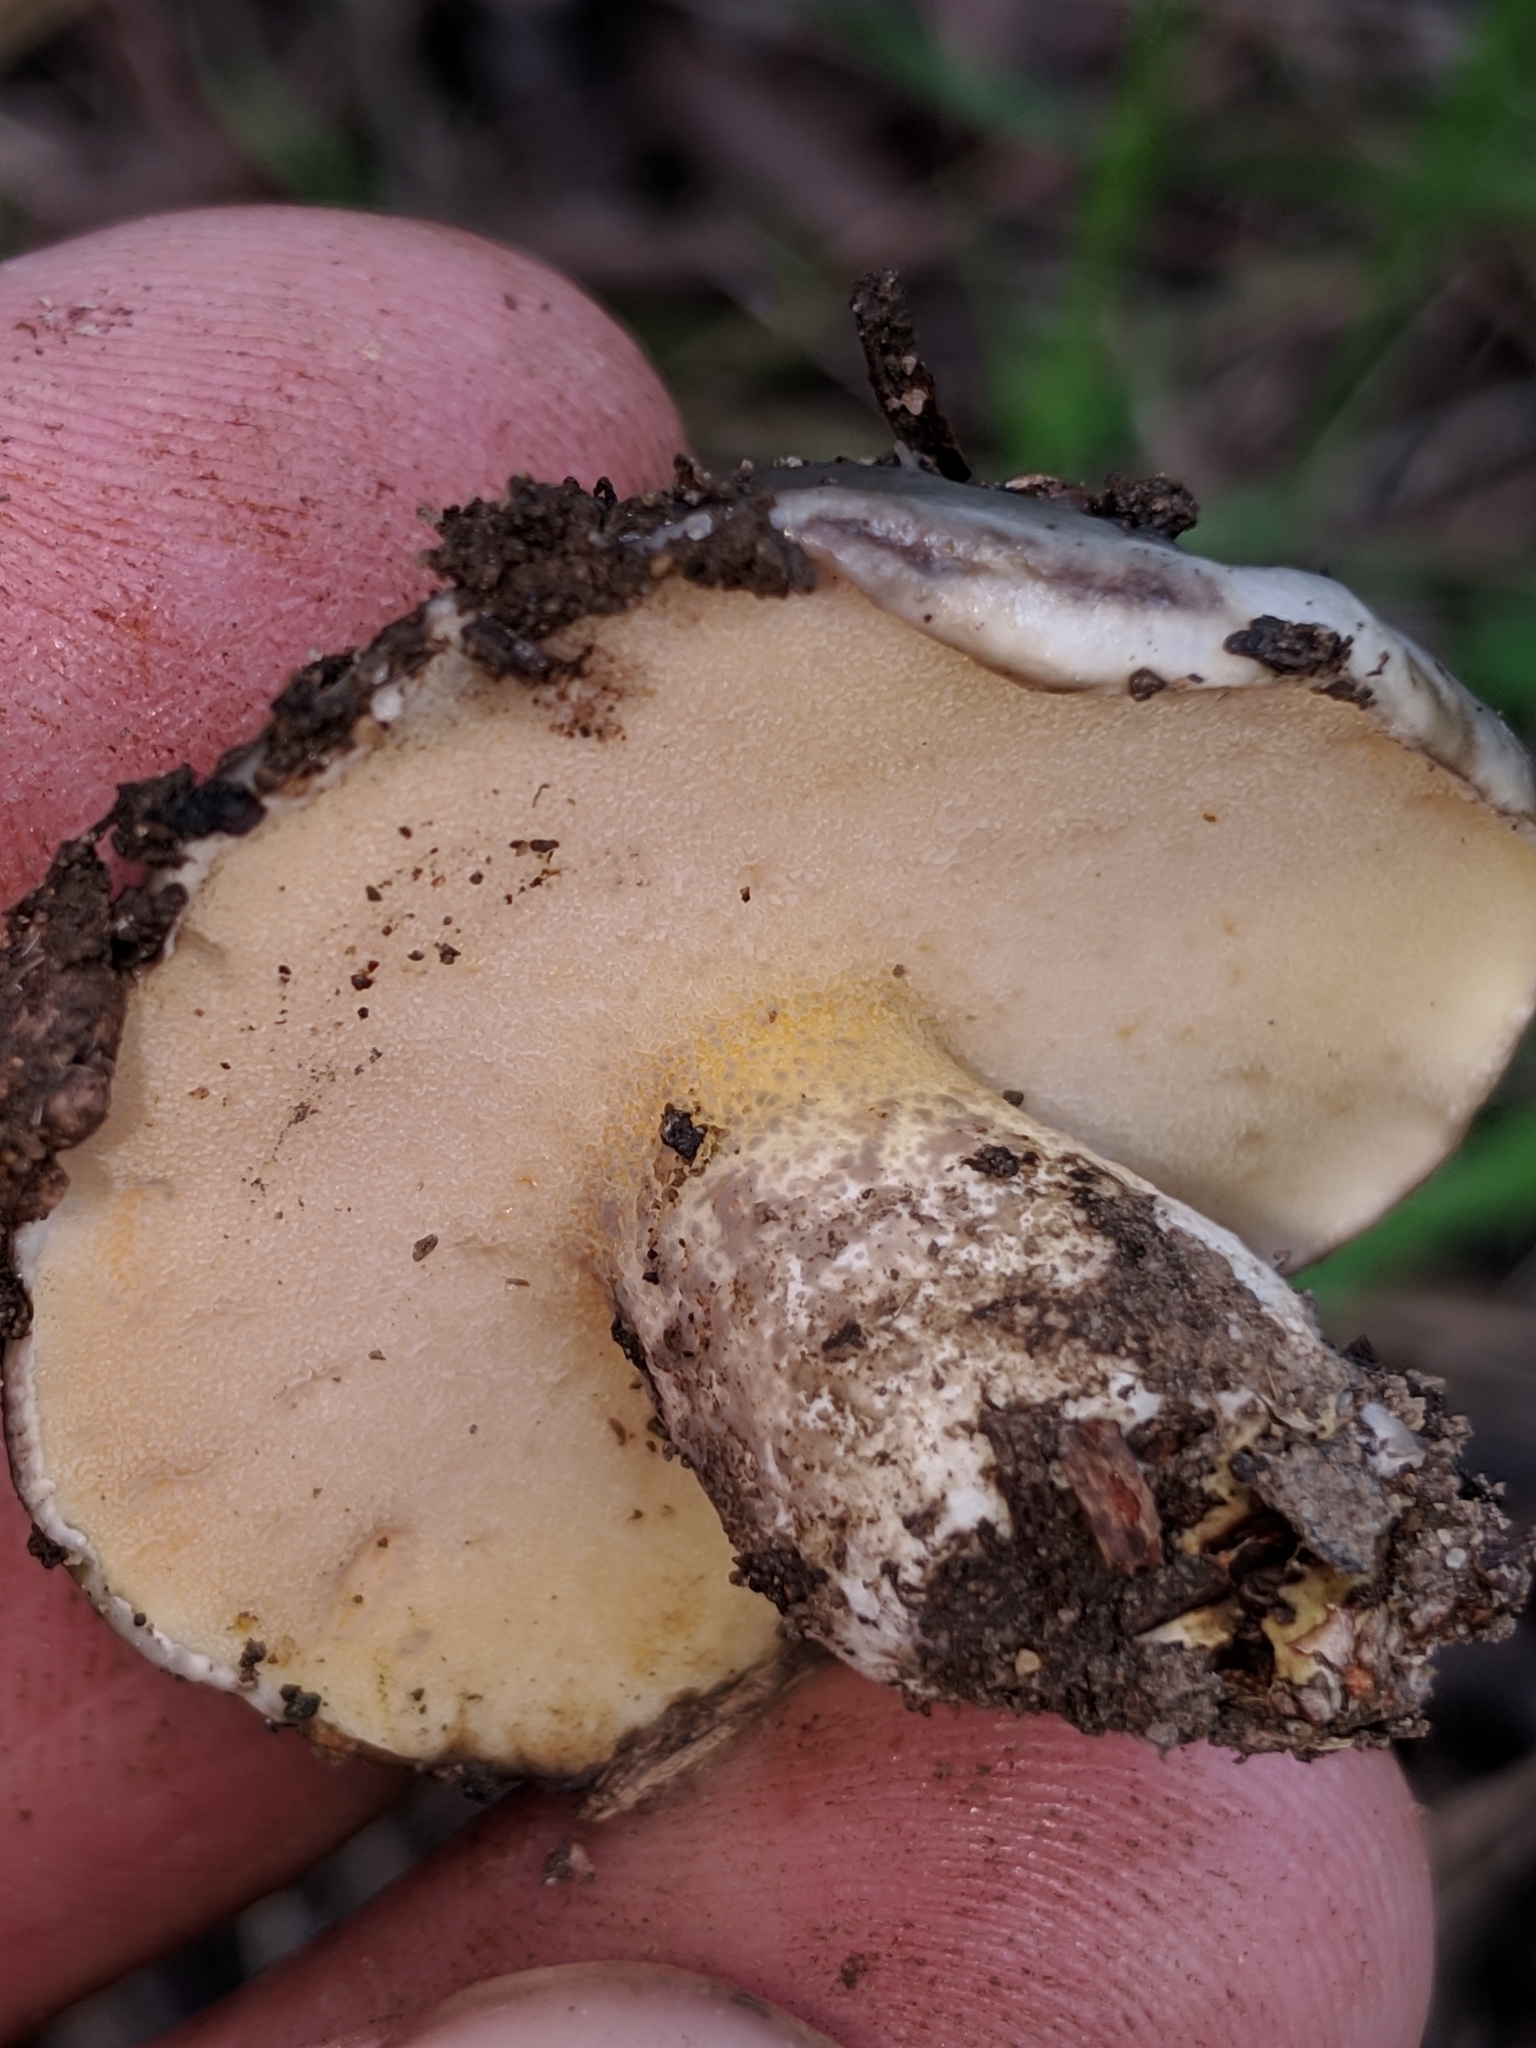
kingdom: Fungi
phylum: Basidiomycota
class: Agaricomycetes
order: Boletales
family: Suillaceae
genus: Suillus
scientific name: Suillus pungens
